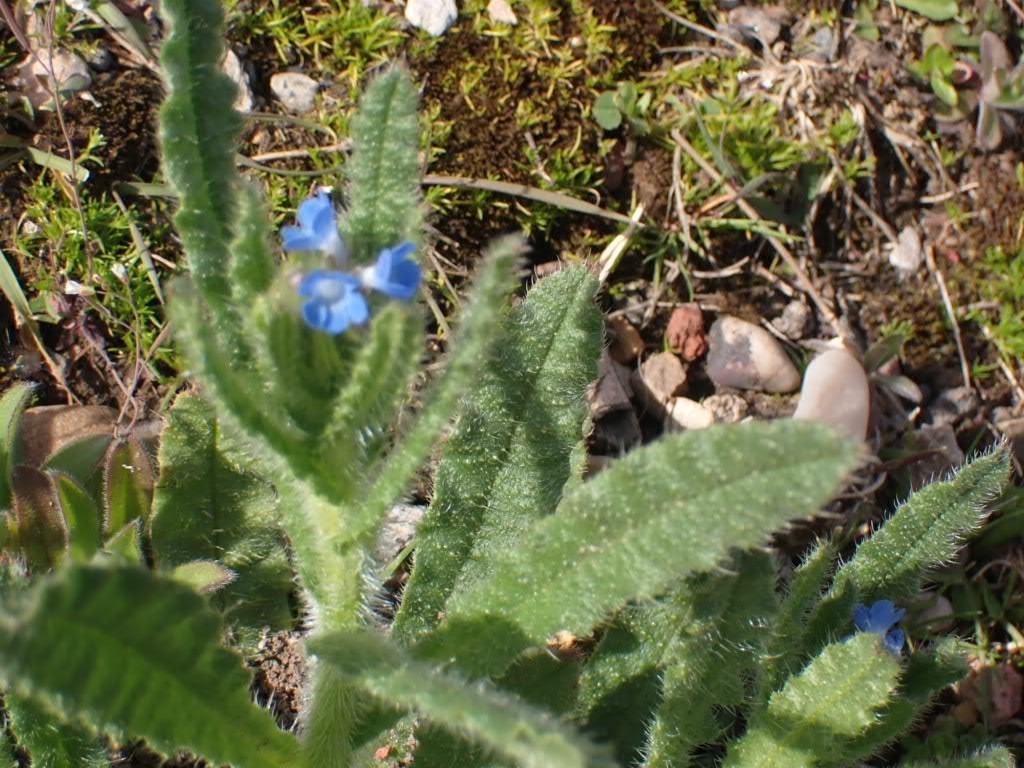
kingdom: Plantae
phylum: Tracheophyta
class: Magnoliopsida
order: Boraginales
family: Boraginaceae
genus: Lycopsis
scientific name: Lycopsis arvensis
